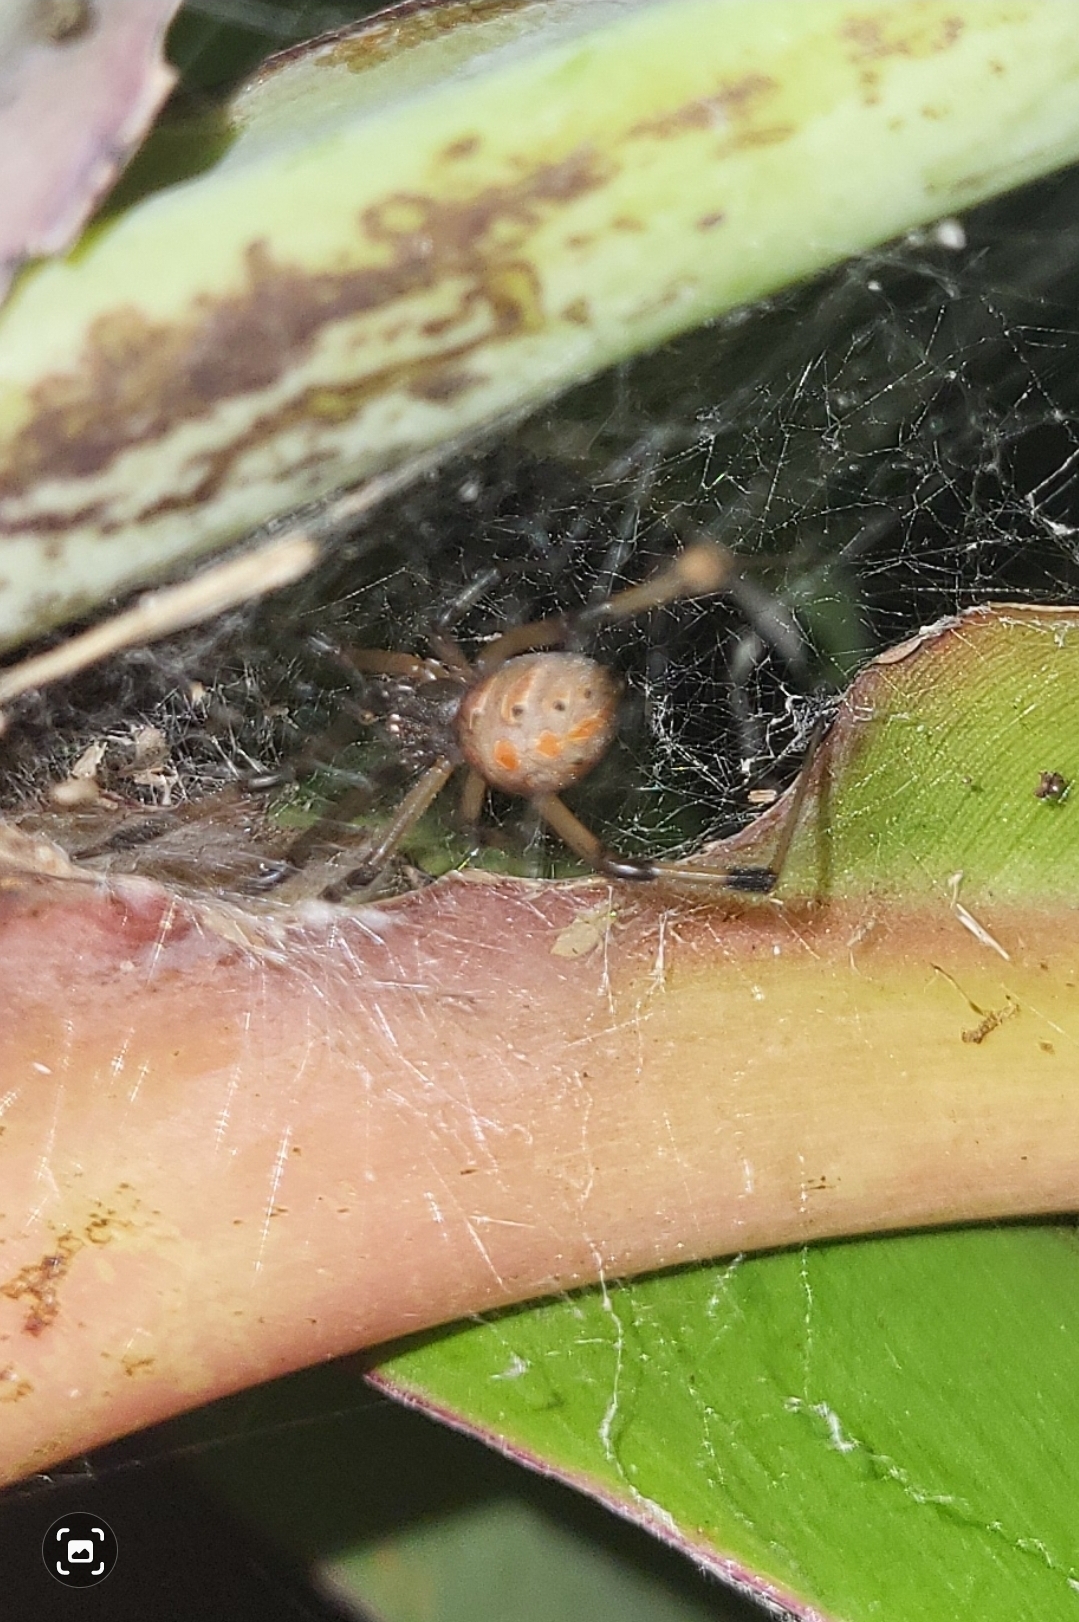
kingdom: Animalia
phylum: Arthropoda
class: Arachnida
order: Araneae
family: Theridiidae
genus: Latrodectus
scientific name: Latrodectus geometricus
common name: Brown widow spider
